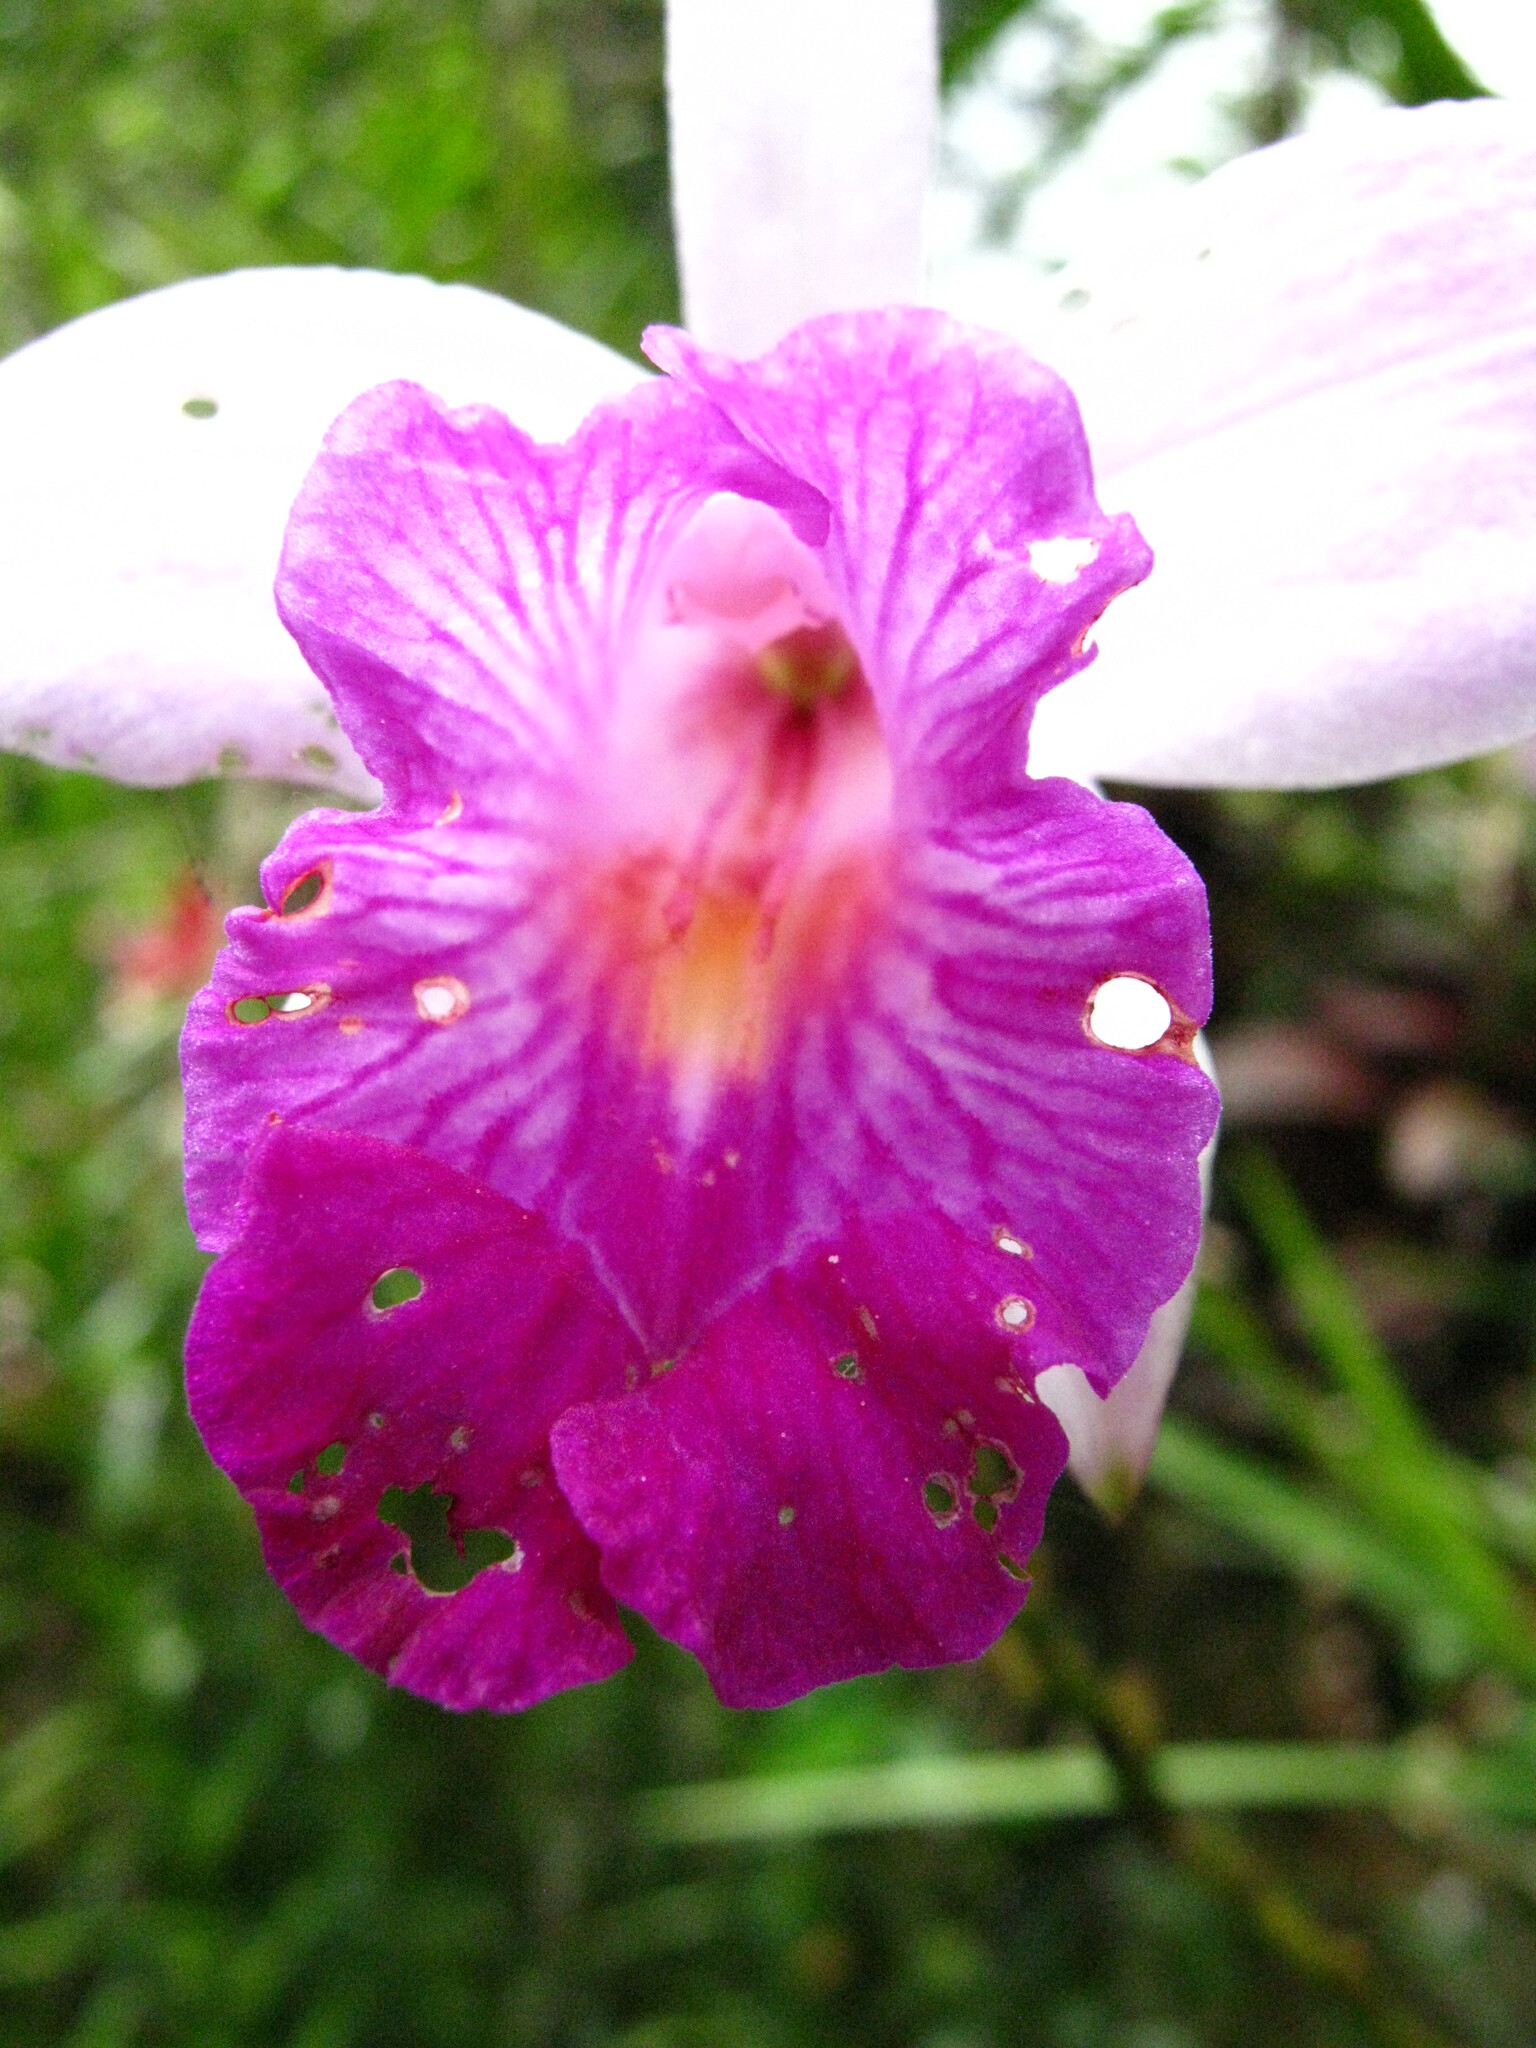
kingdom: Plantae
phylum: Tracheophyta
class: Liliopsida
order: Asparagales
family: Orchidaceae
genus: Arundina
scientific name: Arundina graminifolia
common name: Bamboo orchid
